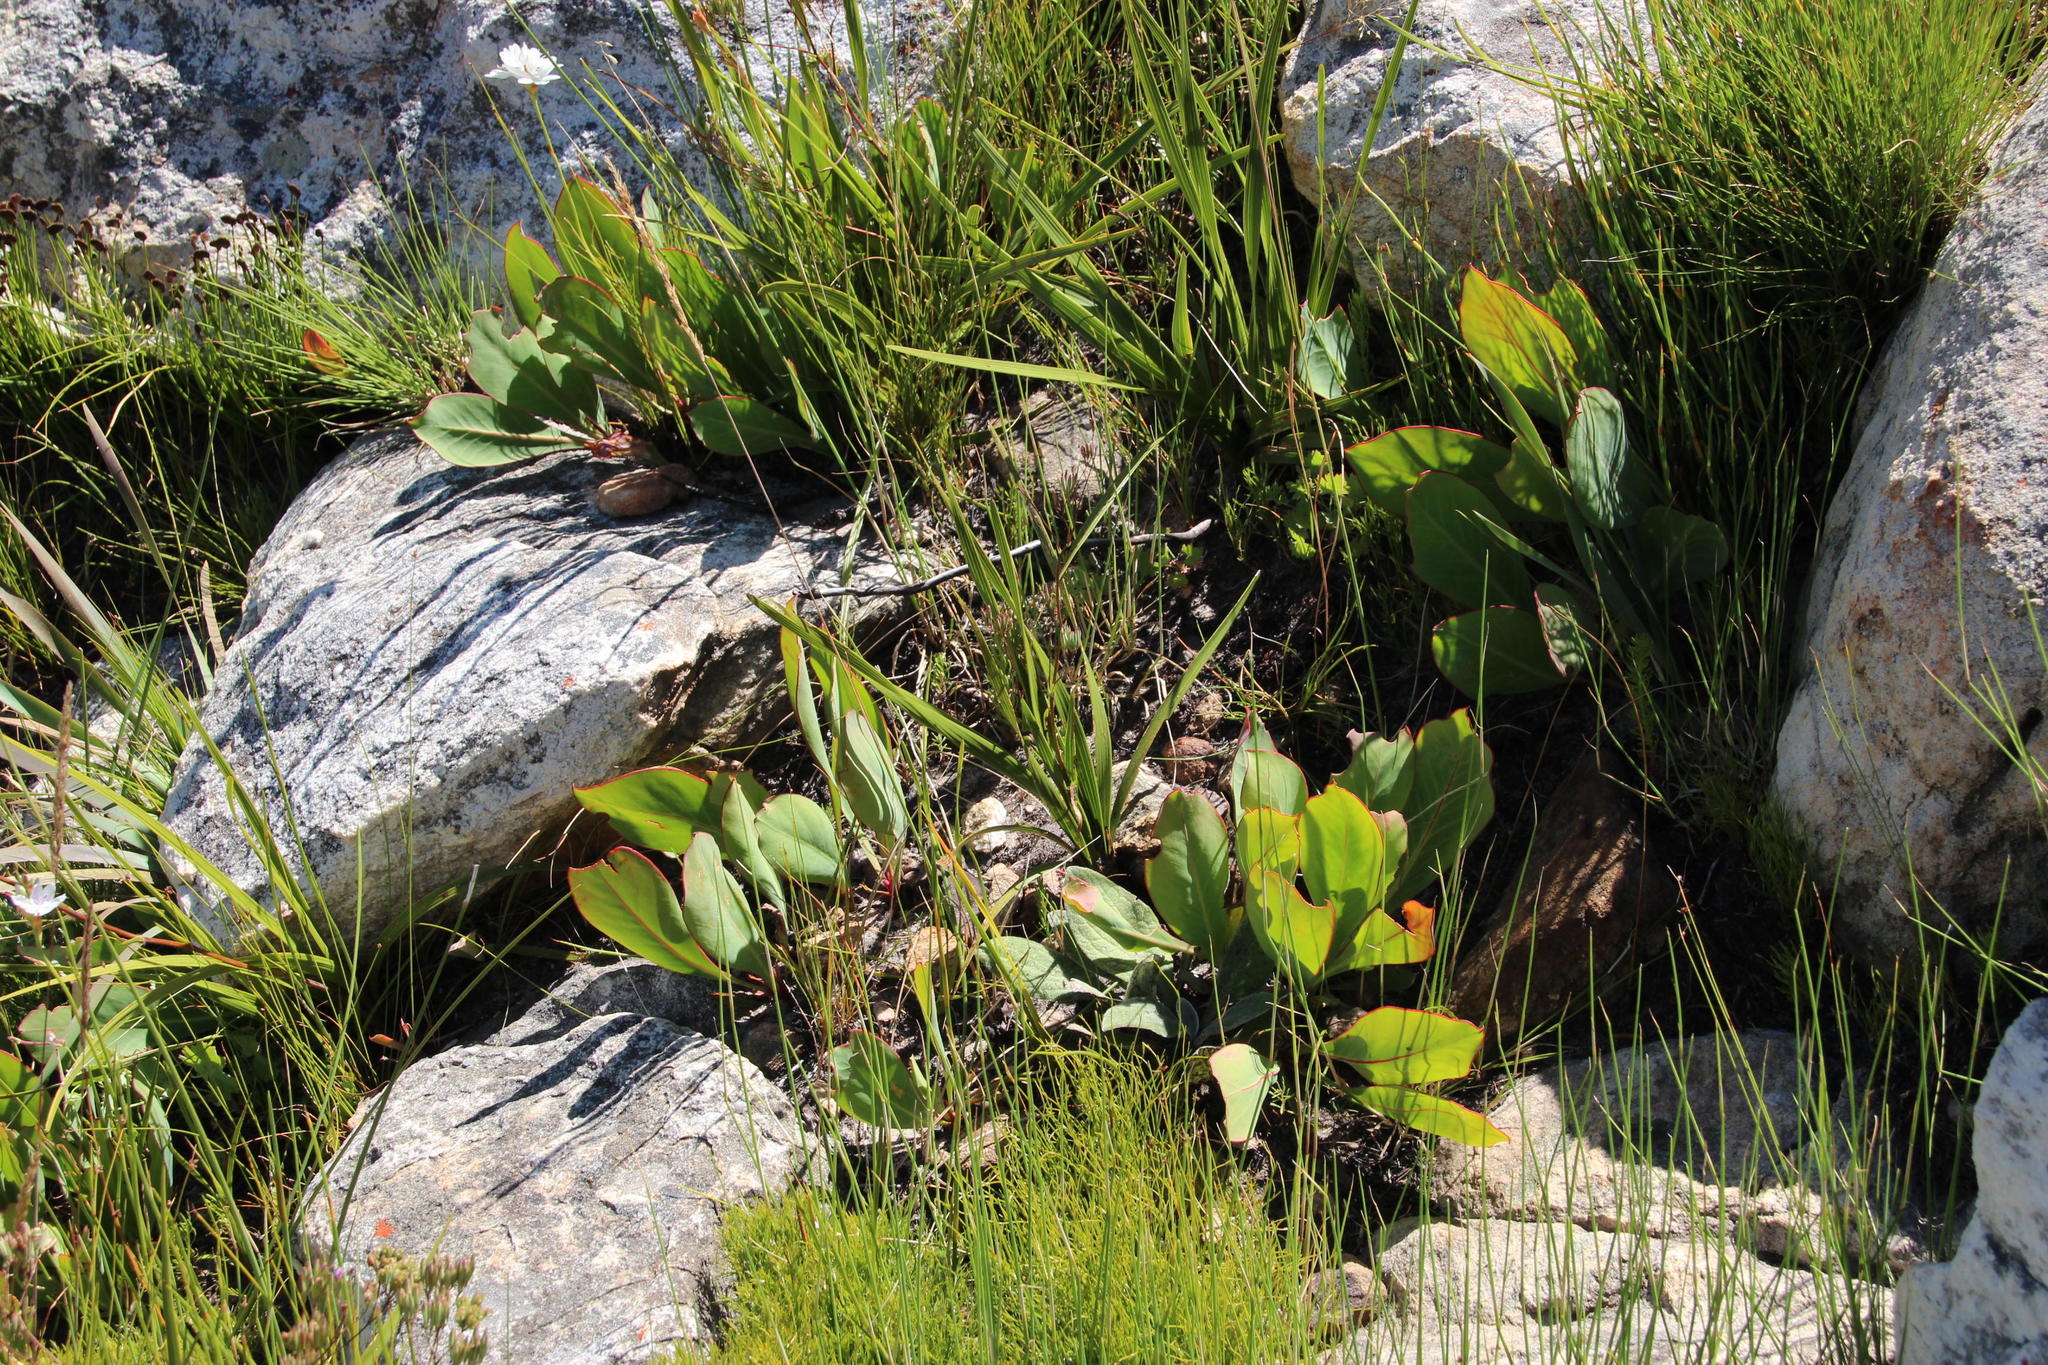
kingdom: Plantae
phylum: Tracheophyta
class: Magnoliopsida
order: Proteales
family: Proteaceae
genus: Protea
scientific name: Protea acaulos
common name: Common ground sugarbush
